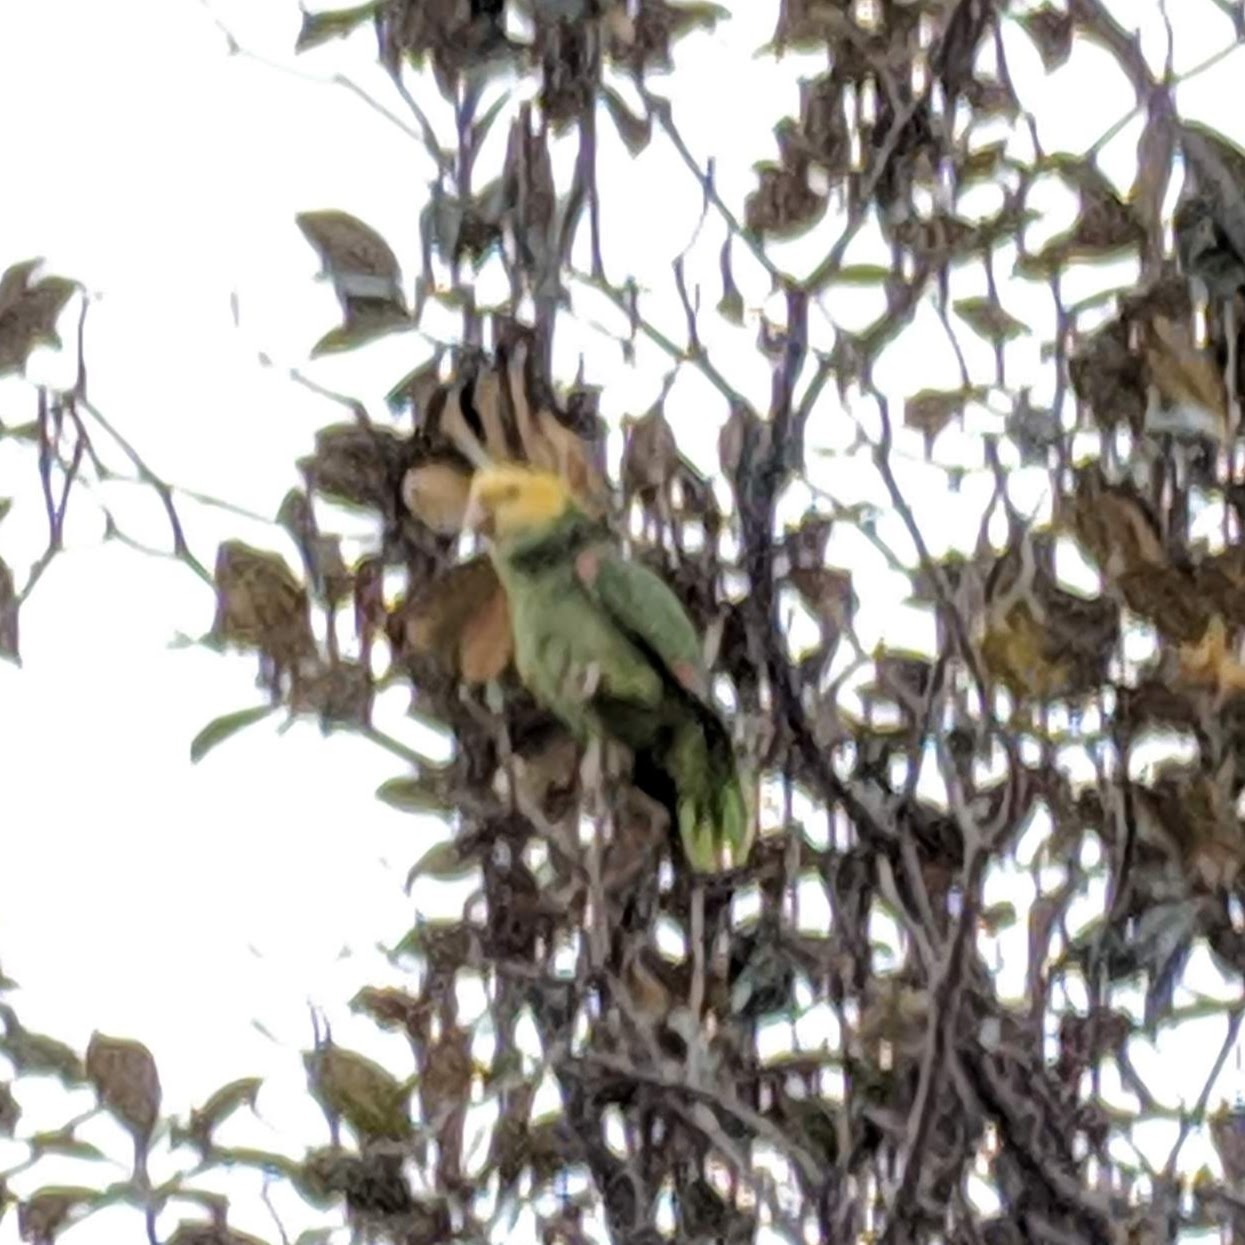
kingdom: Animalia
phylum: Chordata
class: Aves
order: Psittaciformes
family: Psittacidae
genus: Amazona
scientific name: Amazona oratrix
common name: Yellow-headed amazon
